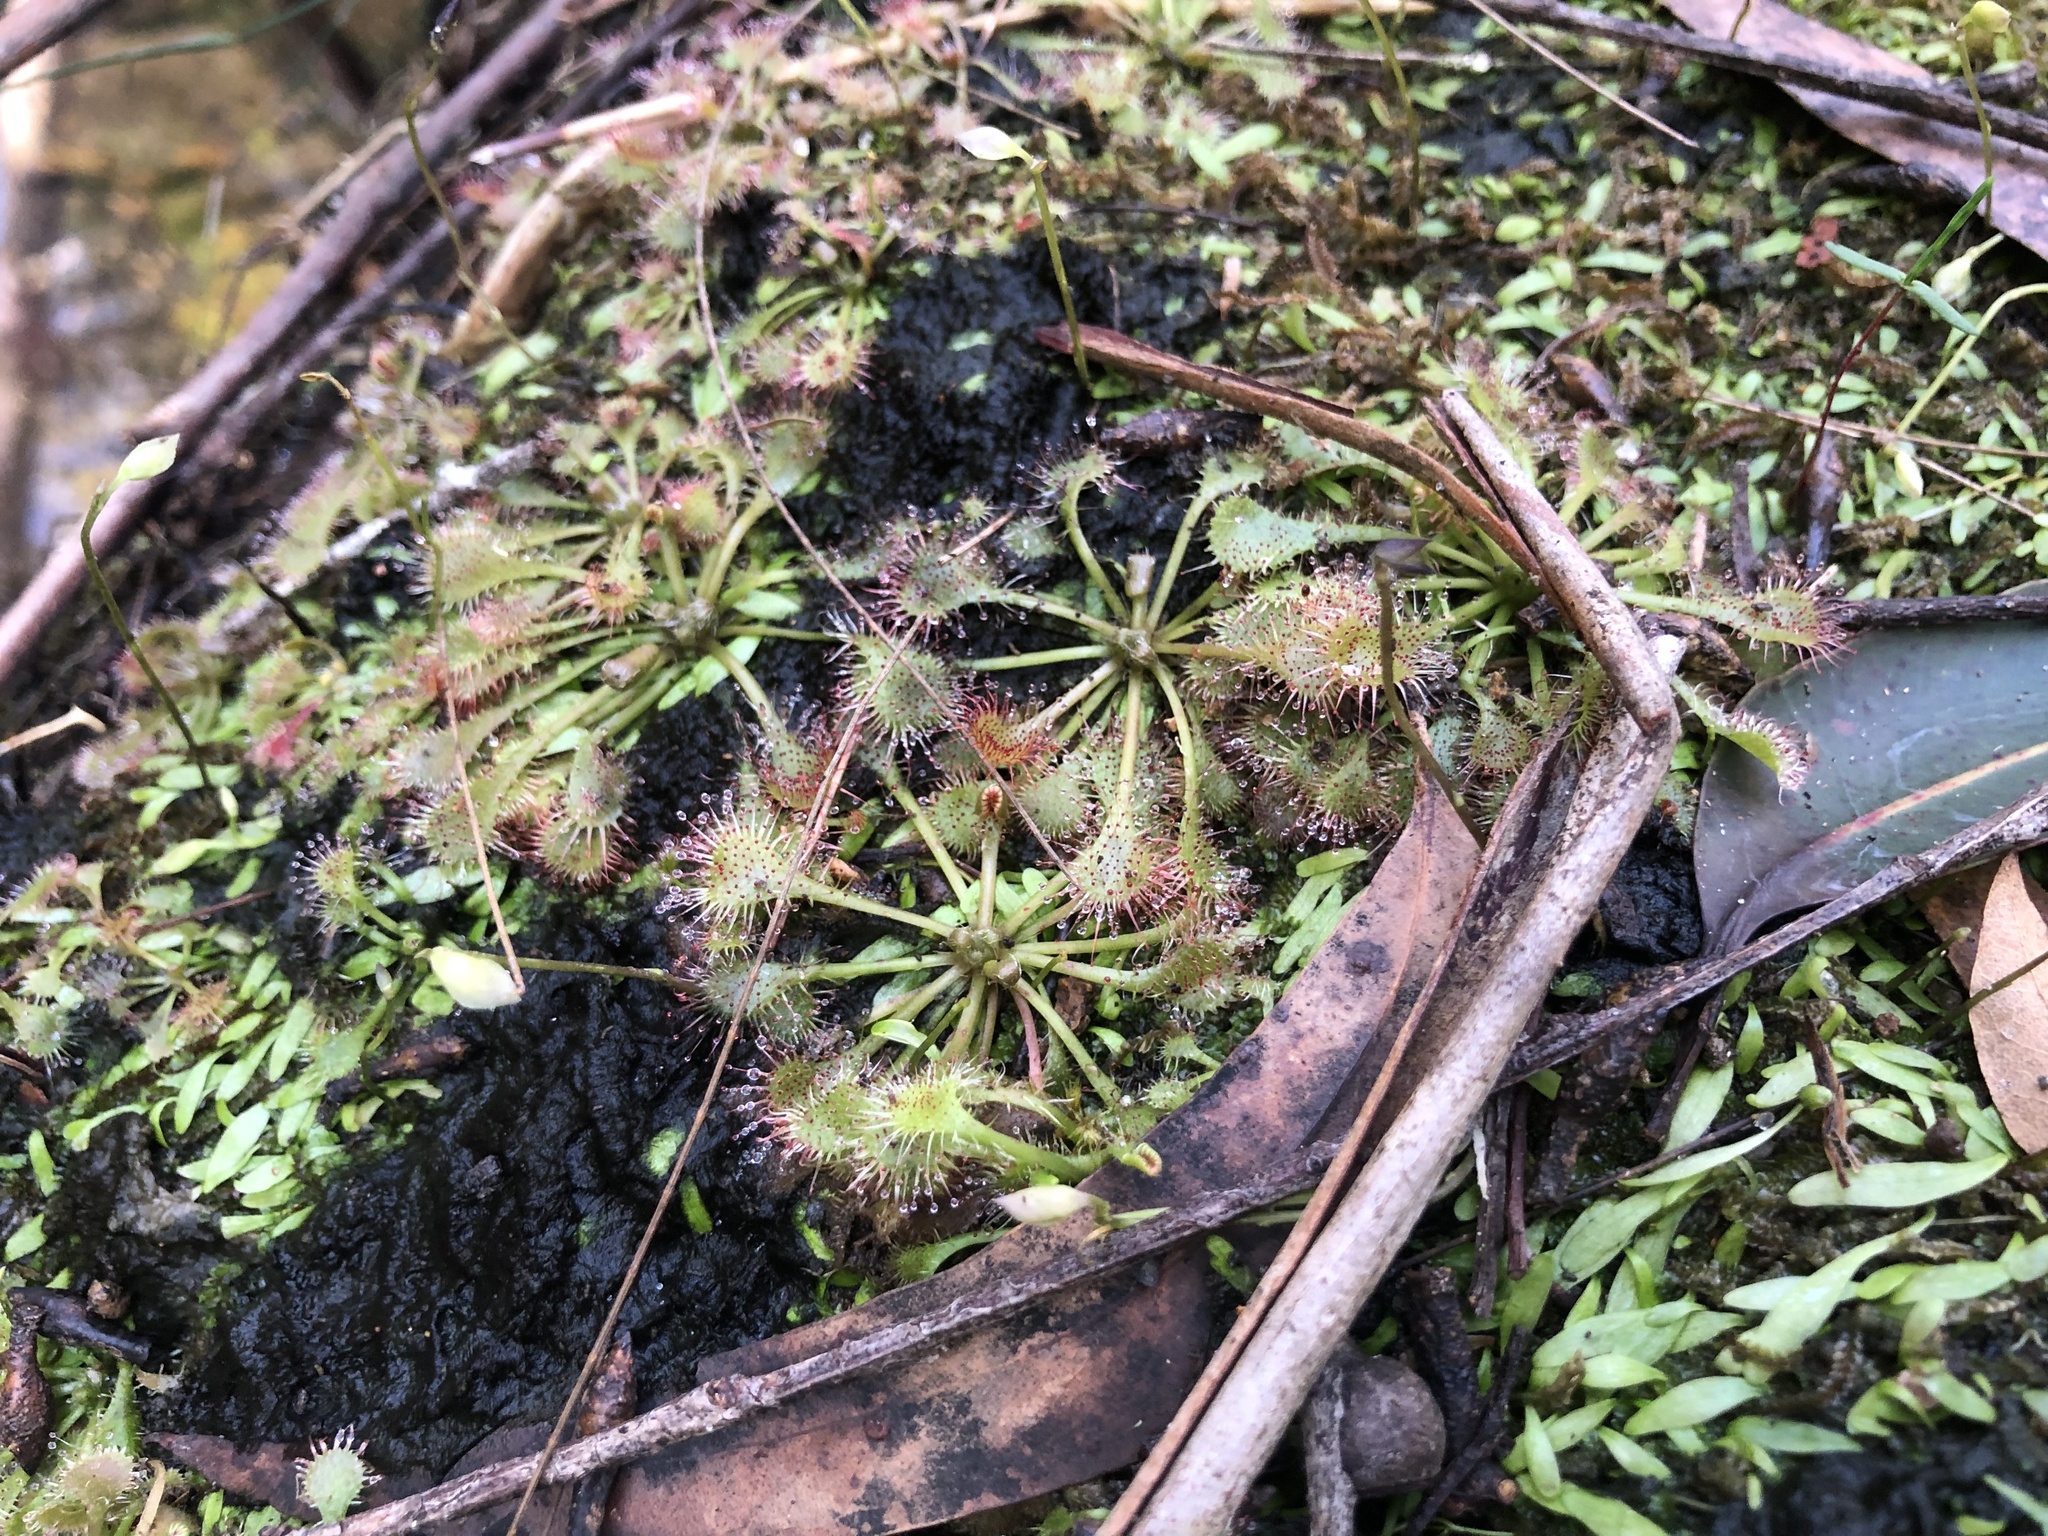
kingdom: Plantae
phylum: Tracheophyta
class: Magnoliopsida
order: Caryophyllales
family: Droseraceae
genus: Drosera
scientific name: Drosera spatulata
